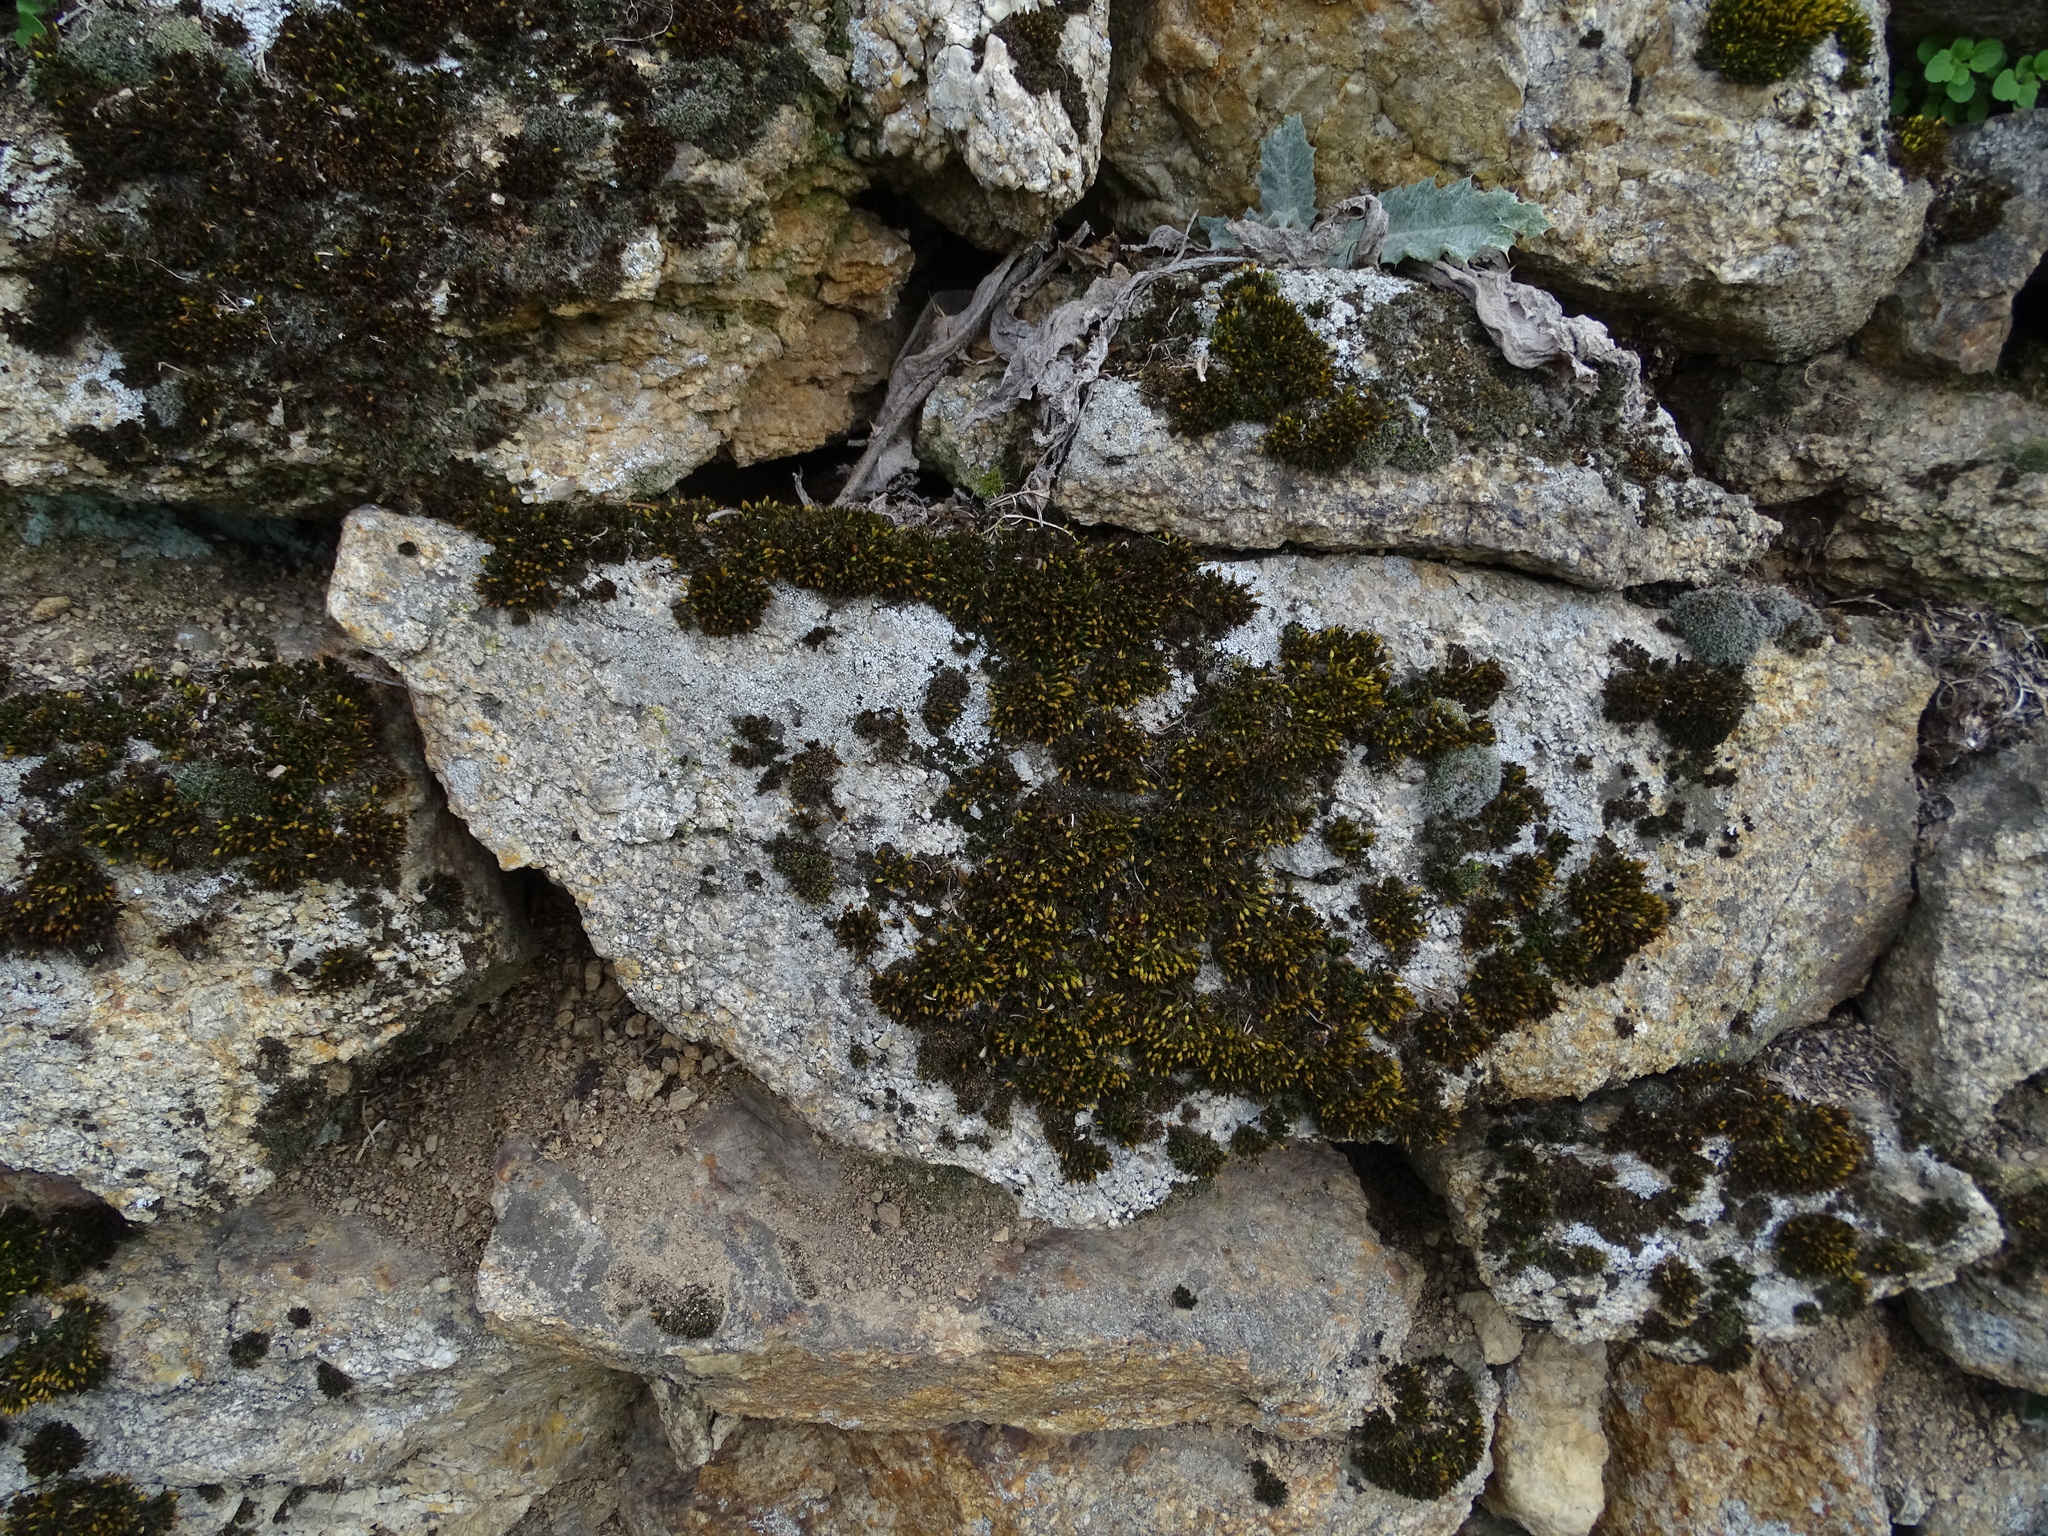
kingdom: Plantae
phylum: Bryophyta
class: Bryopsida
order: Orthotrichales
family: Orthotrichaceae
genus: Orthotrichum
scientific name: Orthotrichum anomalum
